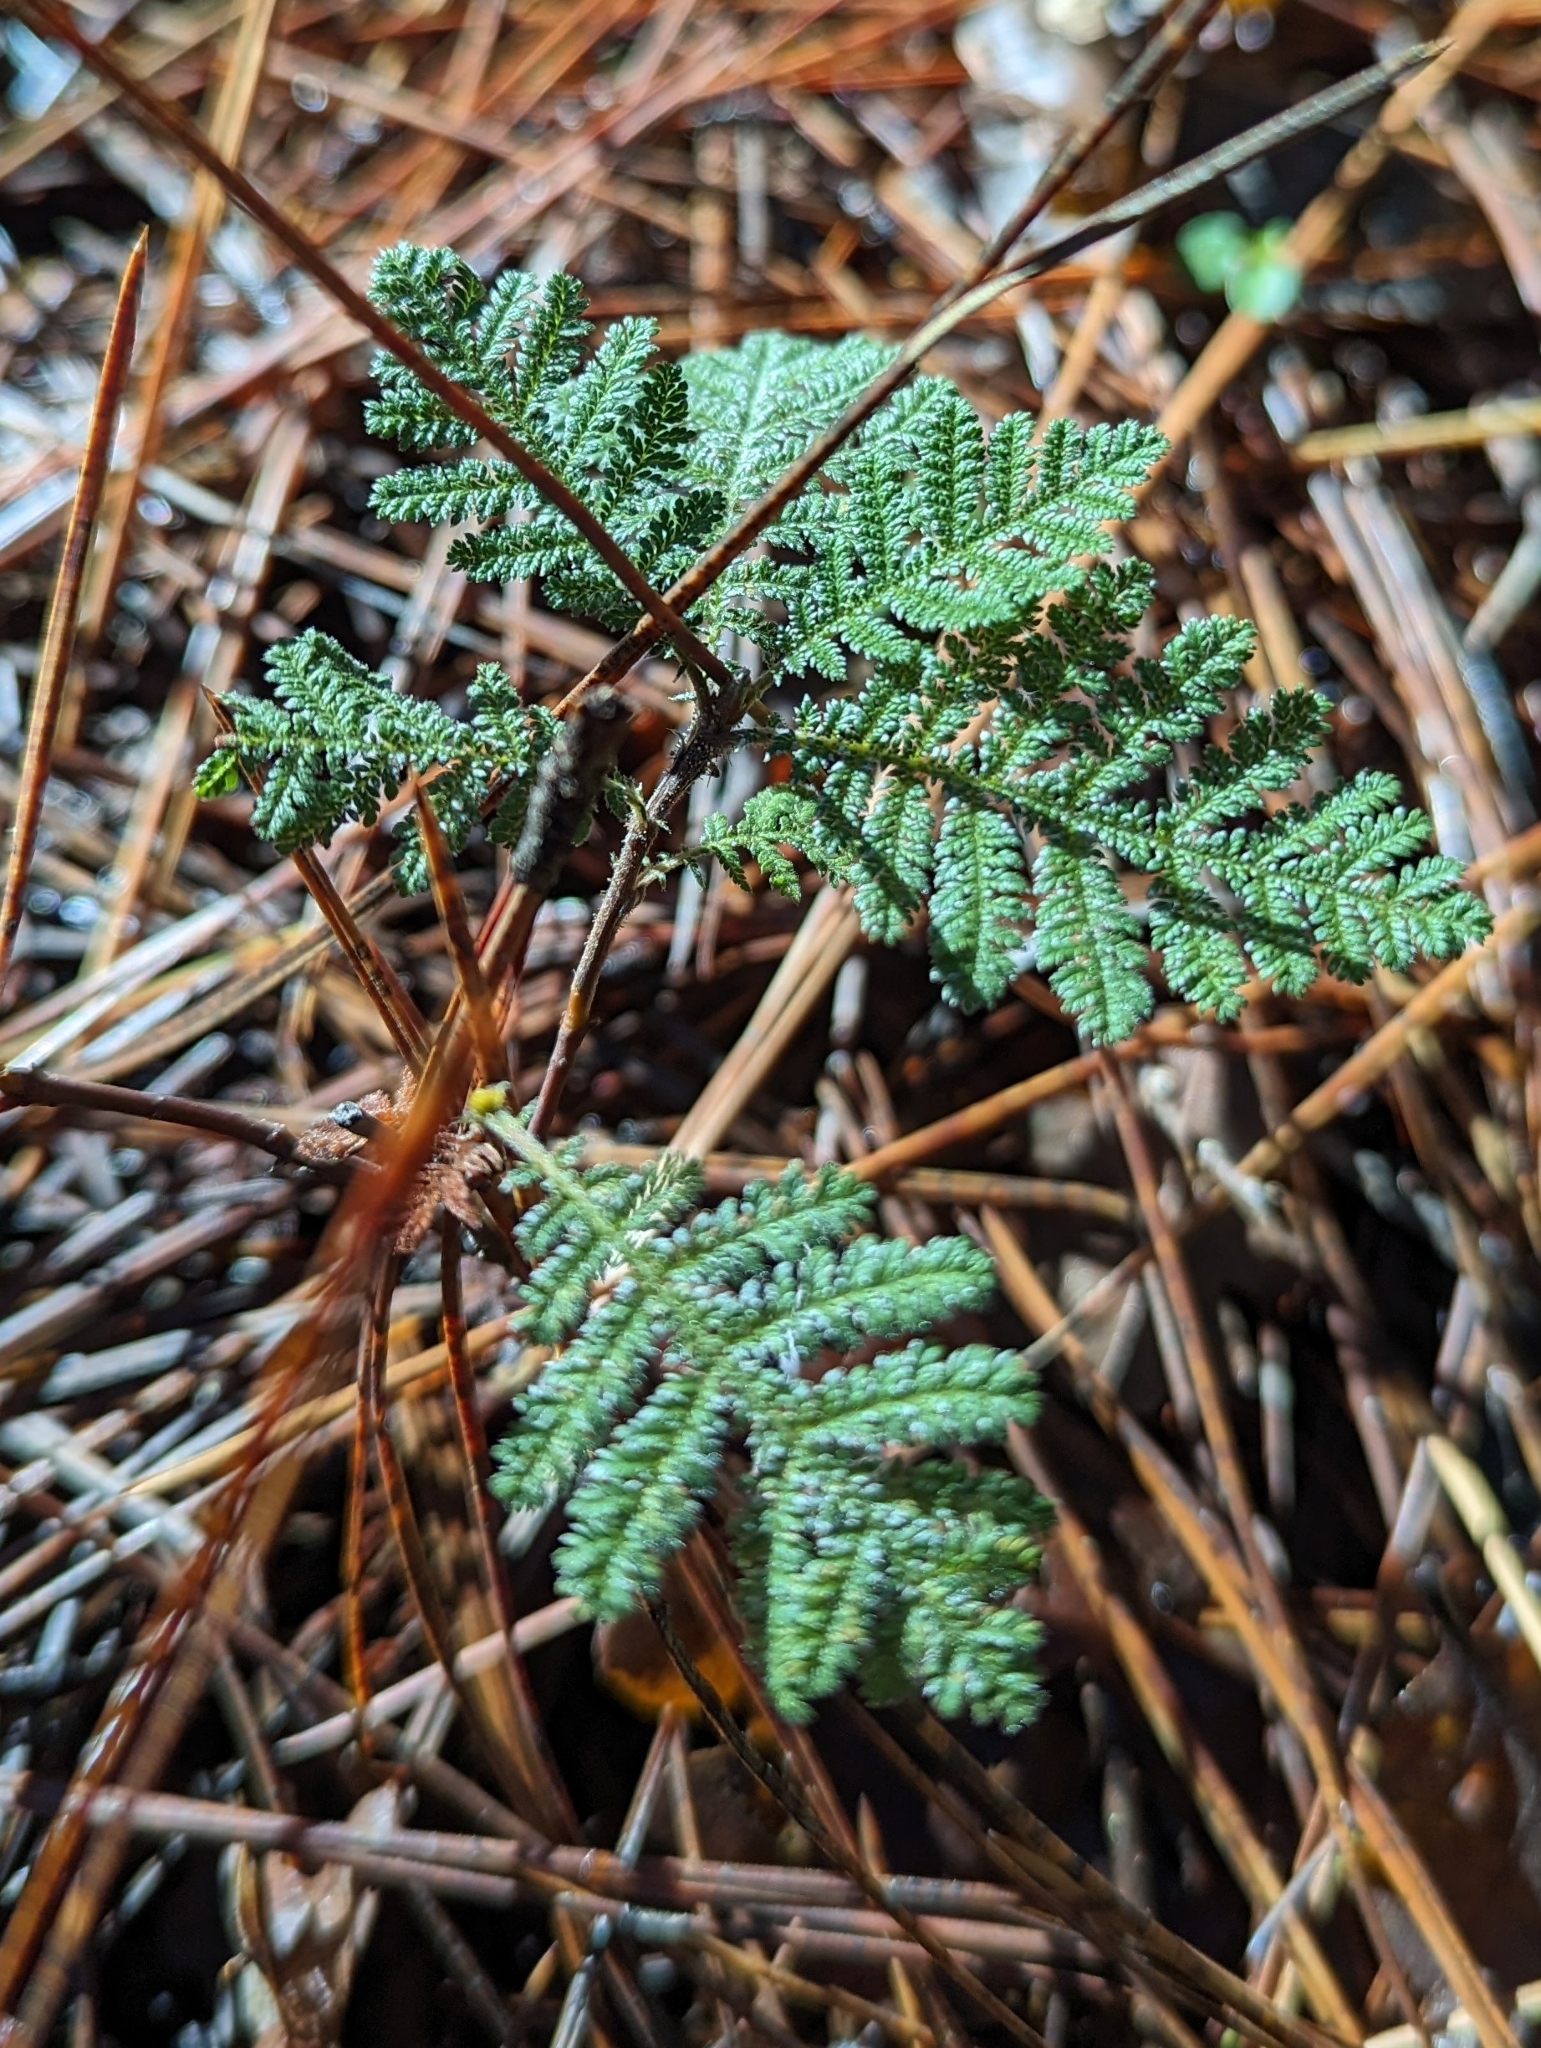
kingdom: Plantae
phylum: Tracheophyta
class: Magnoliopsida
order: Rosales
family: Rosaceae
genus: Chamaebatia
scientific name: Chamaebatia foliolosa
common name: Mountain misery
